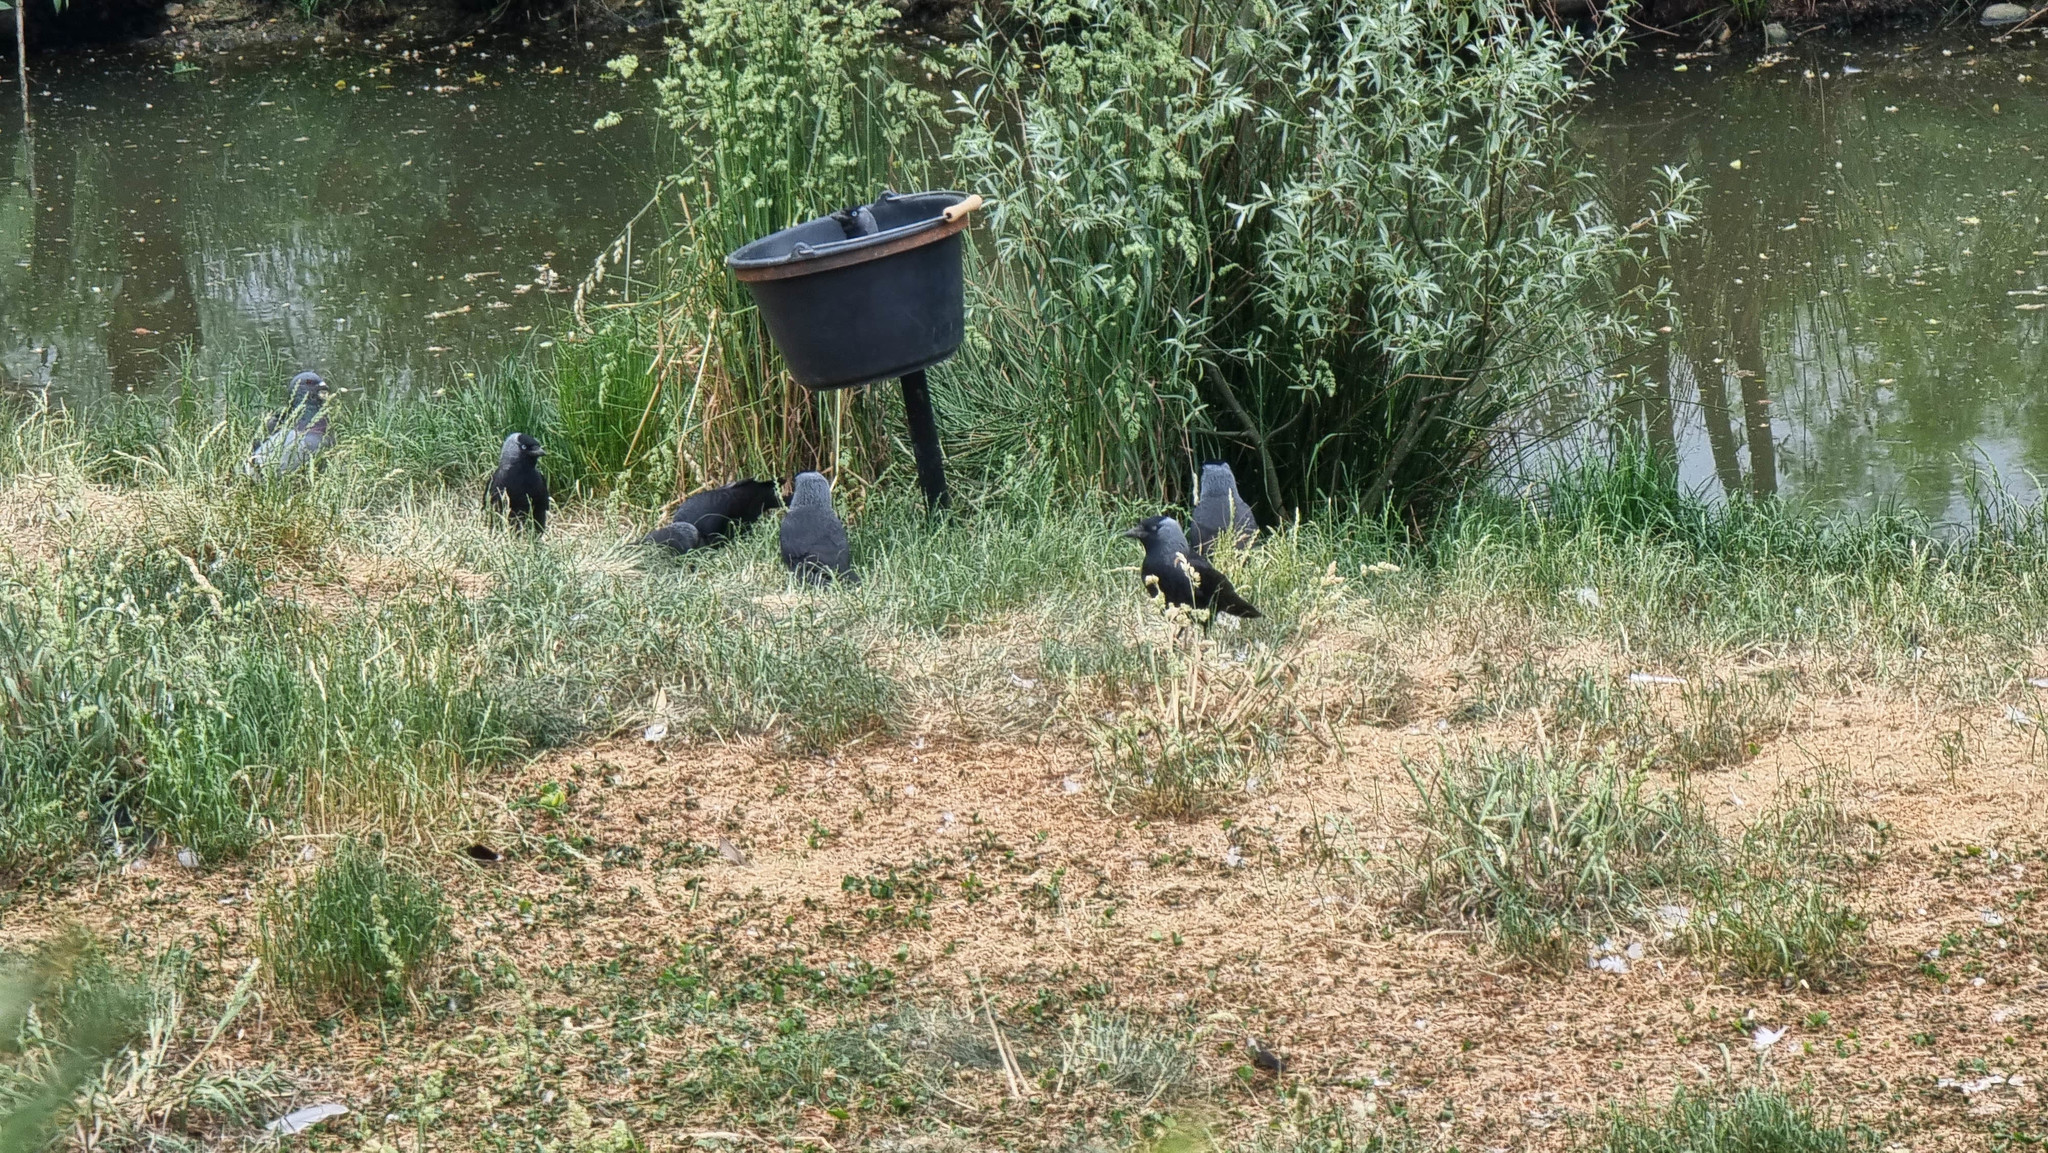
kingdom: Animalia
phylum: Chordata
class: Aves
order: Passeriformes
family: Corvidae
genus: Coloeus
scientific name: Coloeus monedula
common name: Western jackdaw
